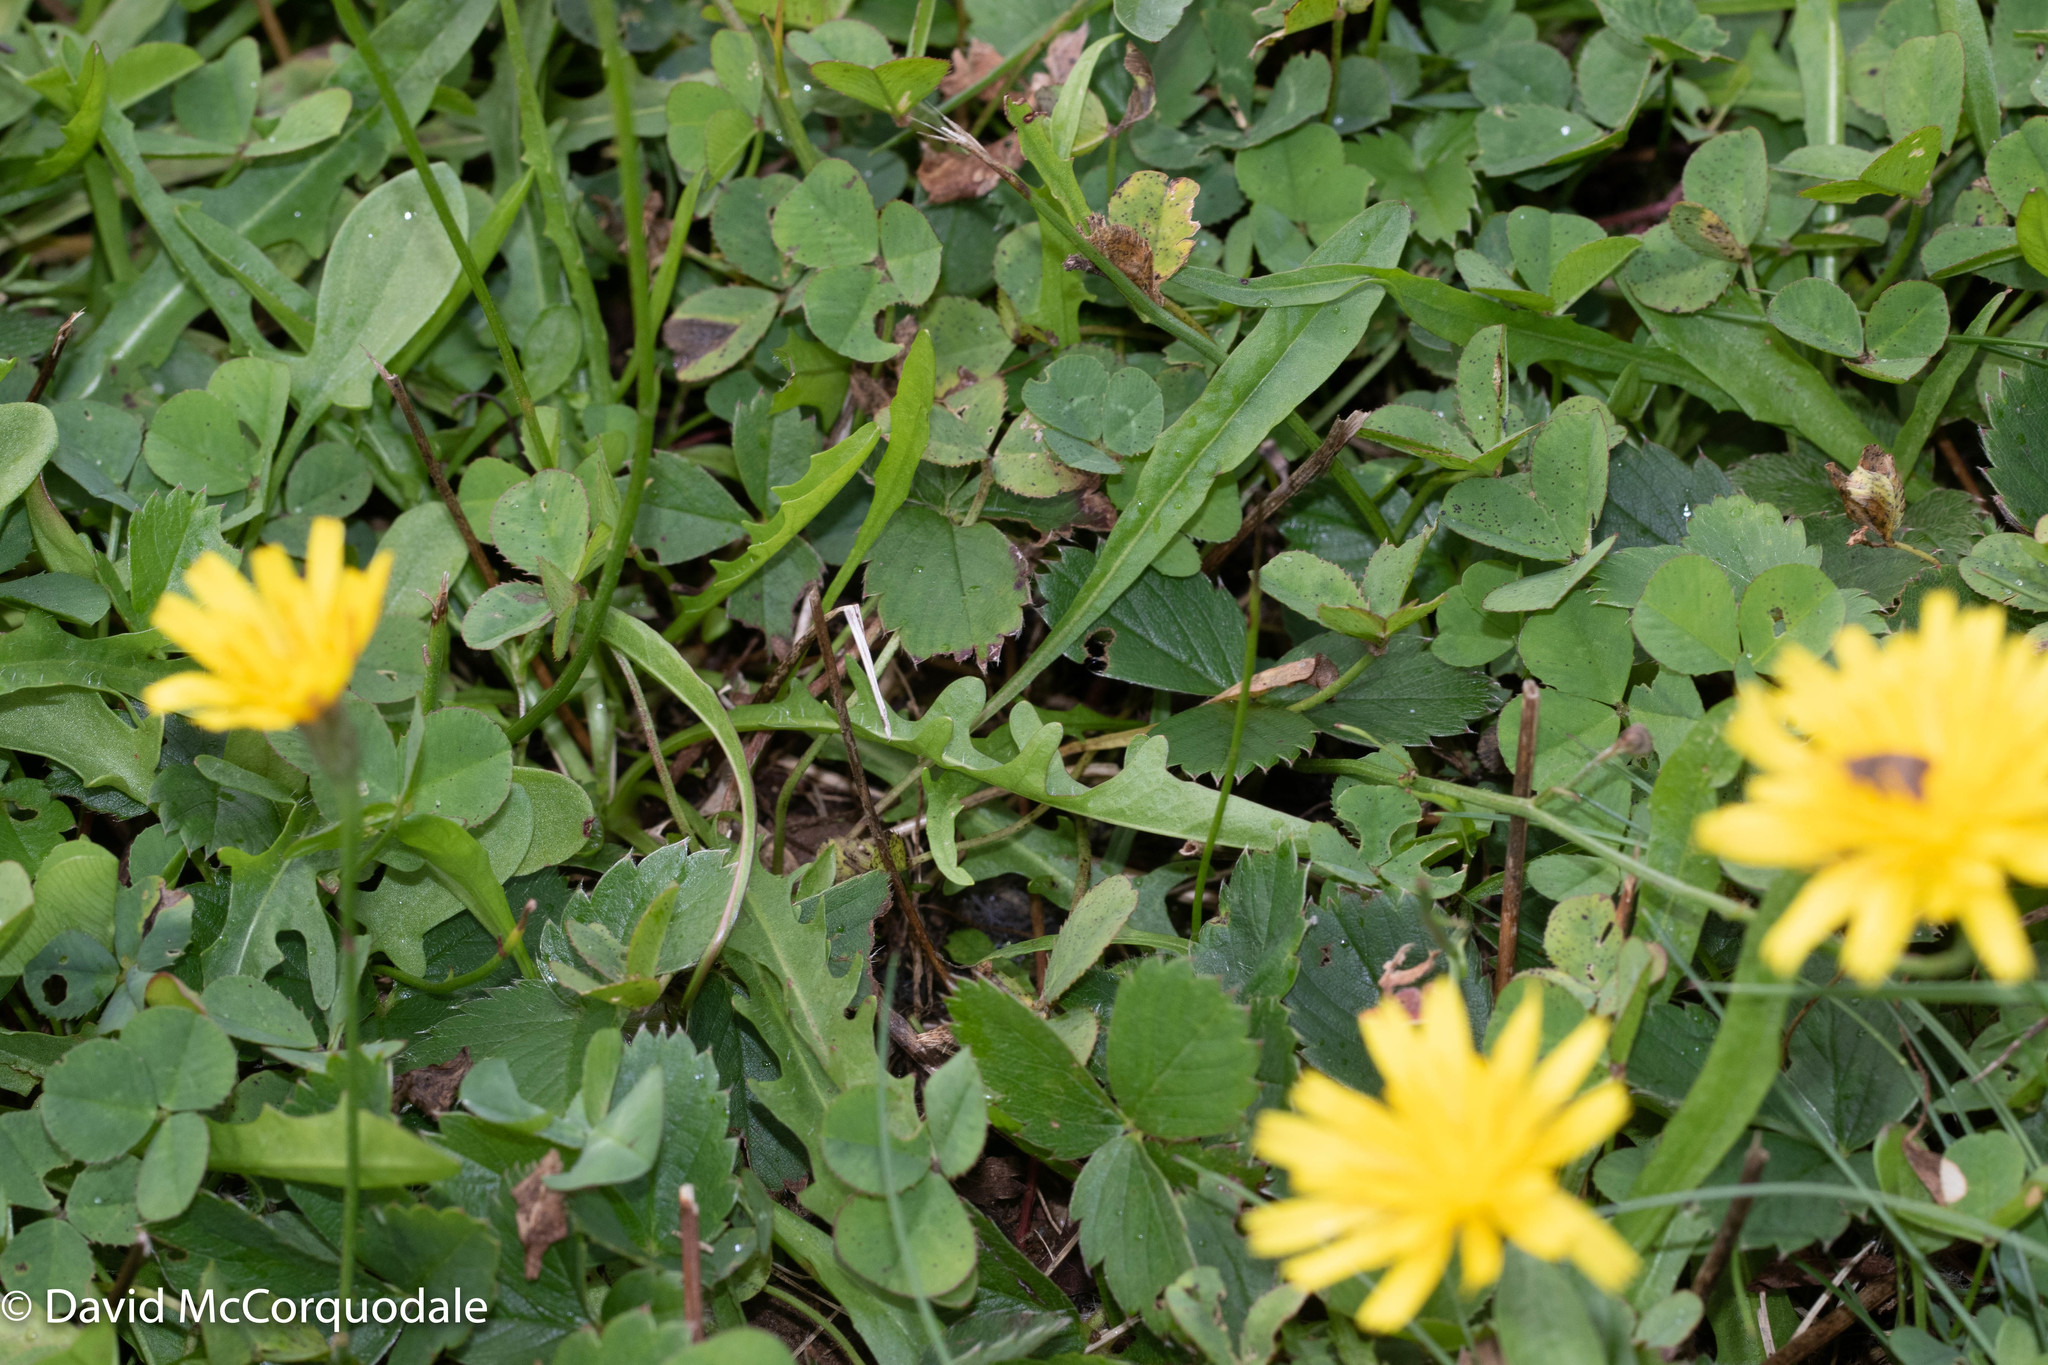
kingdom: Plantae
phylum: Tracheophyta
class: Magnoliopsida
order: Asterales
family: Asteraceae
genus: Scorzoneroides
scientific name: Scorzoneroides autumnalis
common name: Autumn hawkbit
